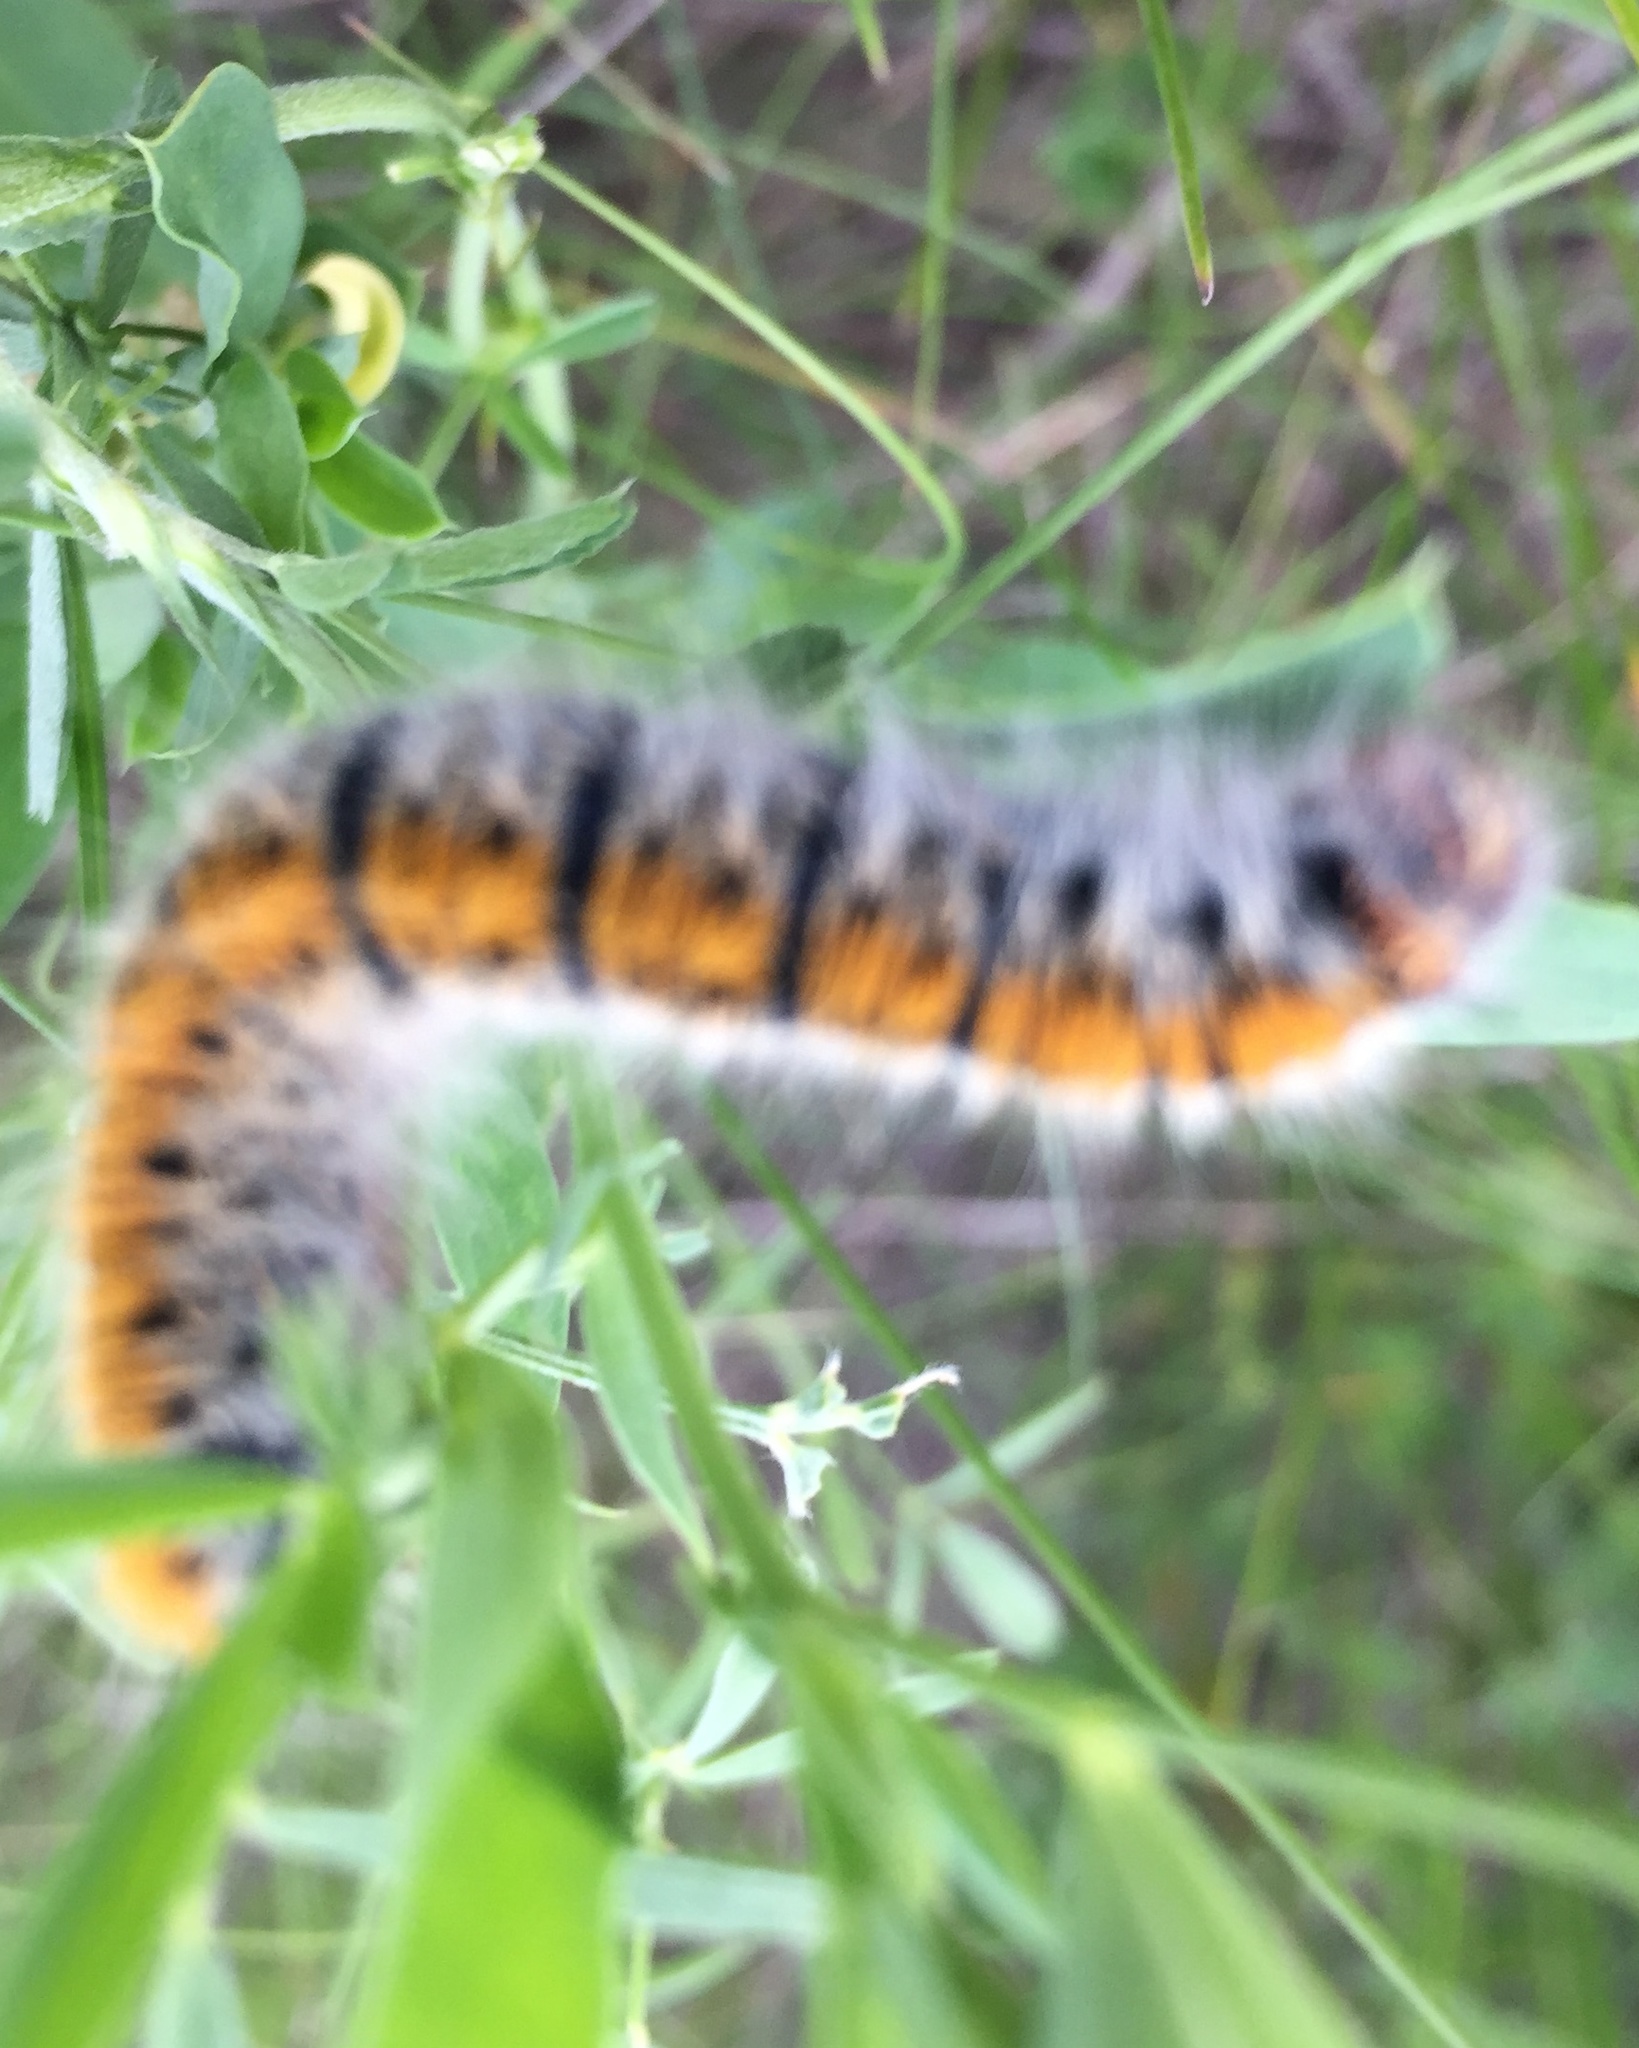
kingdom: Animalia
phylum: Arthropoda
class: Insecta
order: Lepidoptera
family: Lasiocampidae
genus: Lasiocampa
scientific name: Lasiocampa trifolii
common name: Grass eggar
